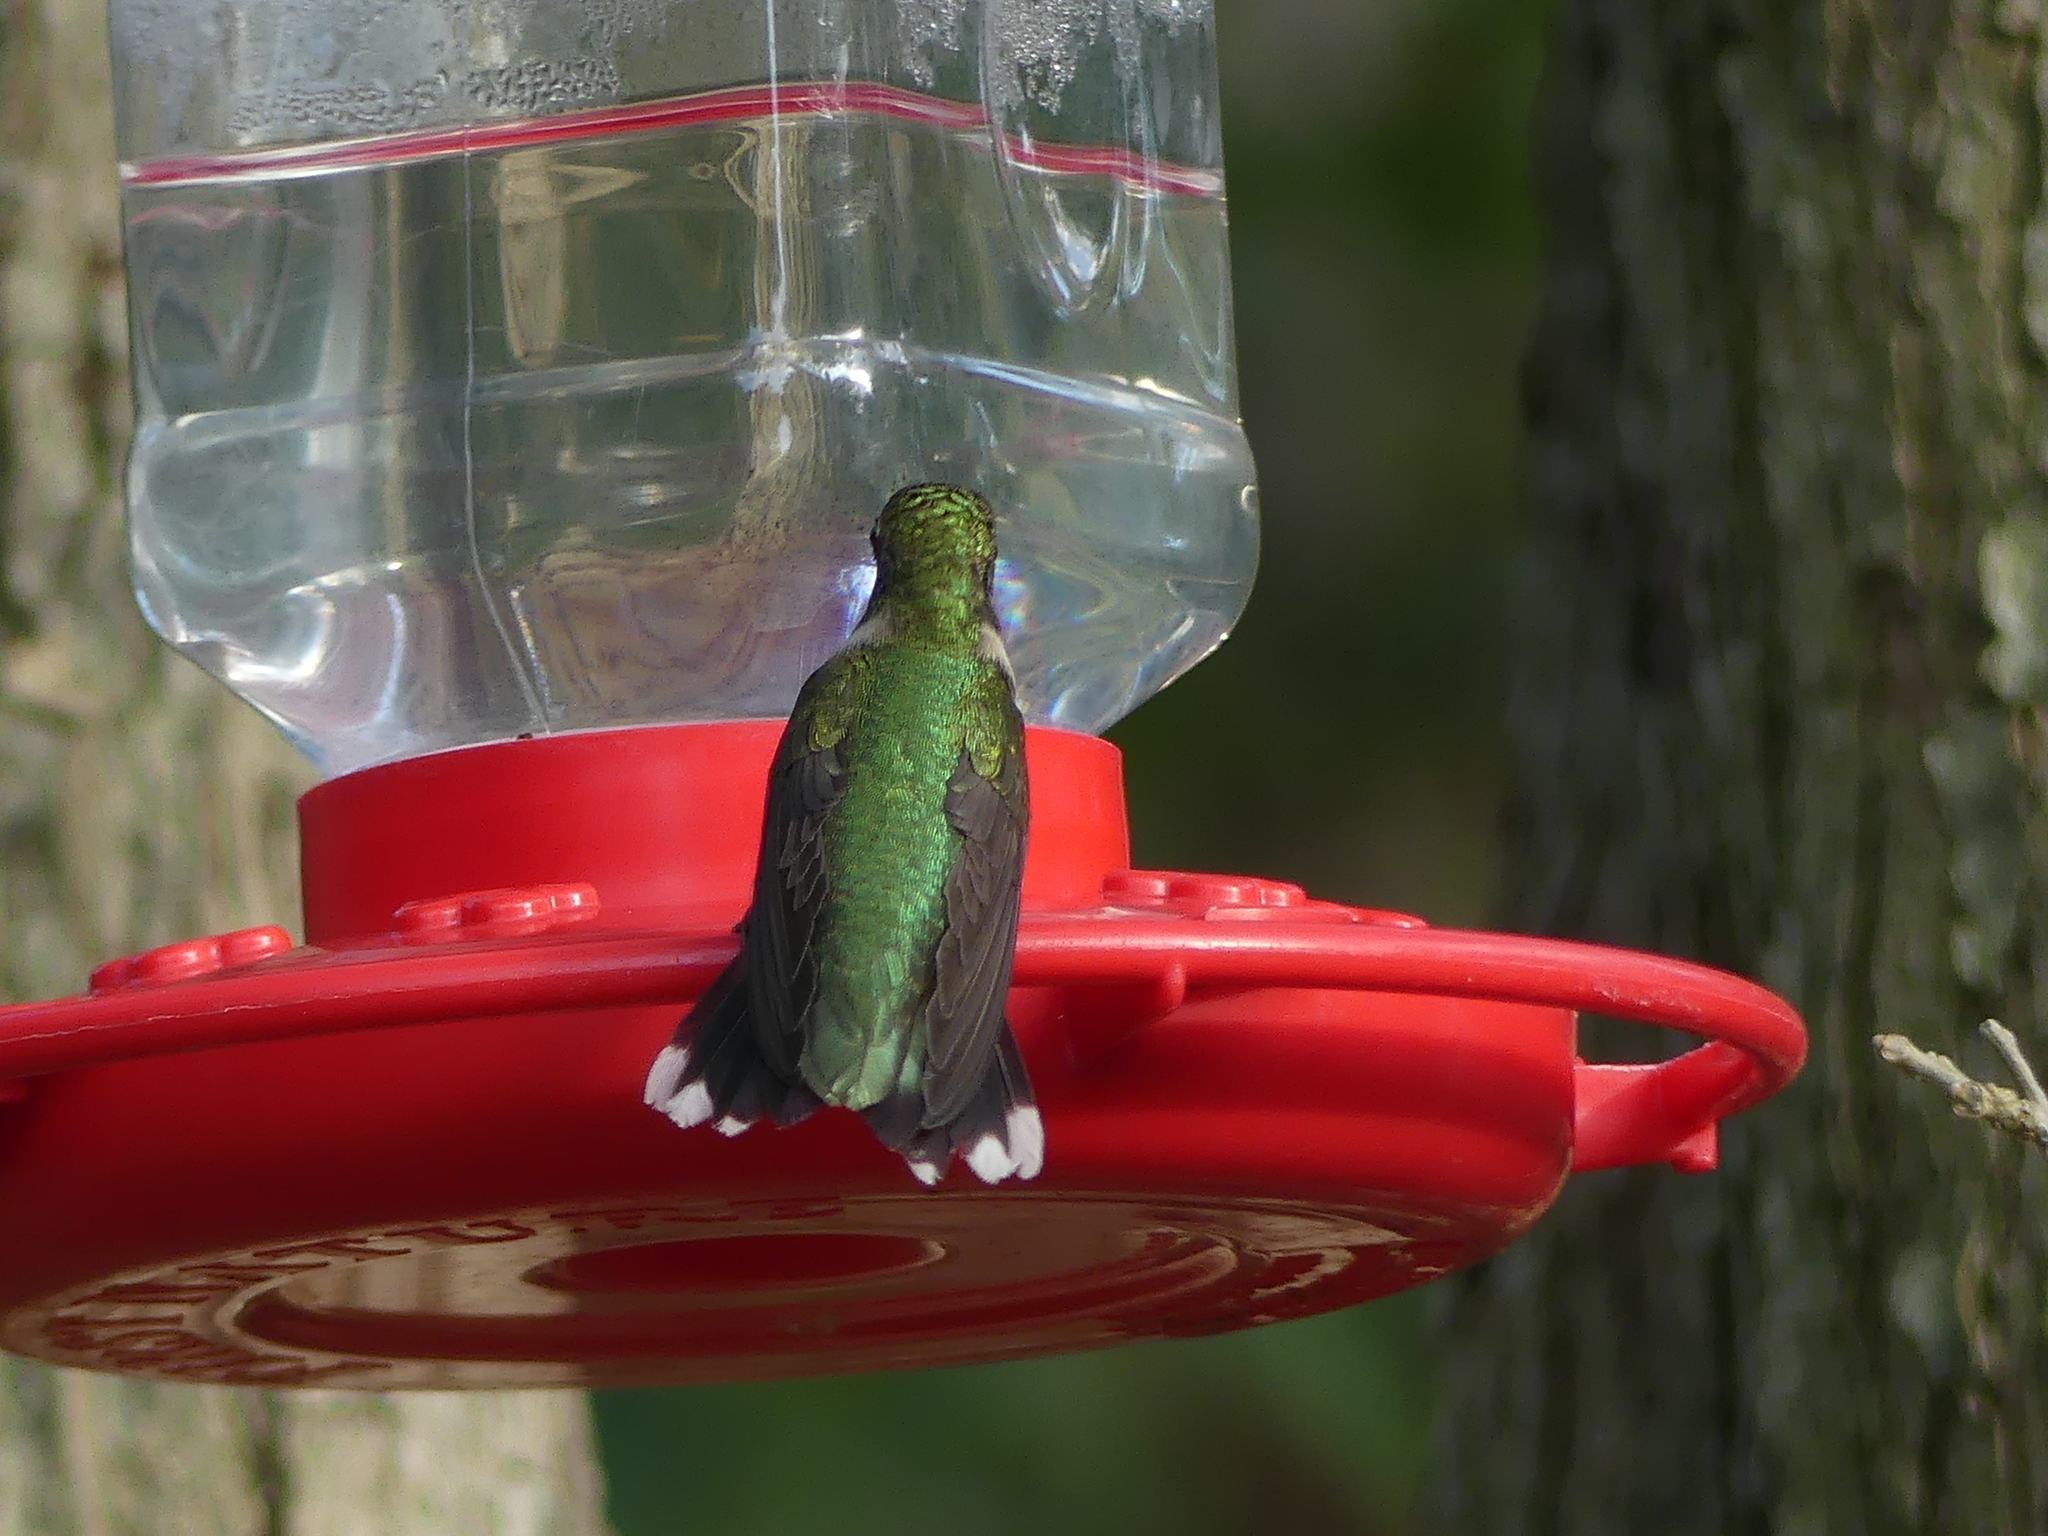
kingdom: Animalia
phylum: Chordata
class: Aves
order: Apodiformes
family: Trochilidae
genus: Archilochus
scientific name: Archilochus colubris
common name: Ruby-throated hummingbird
